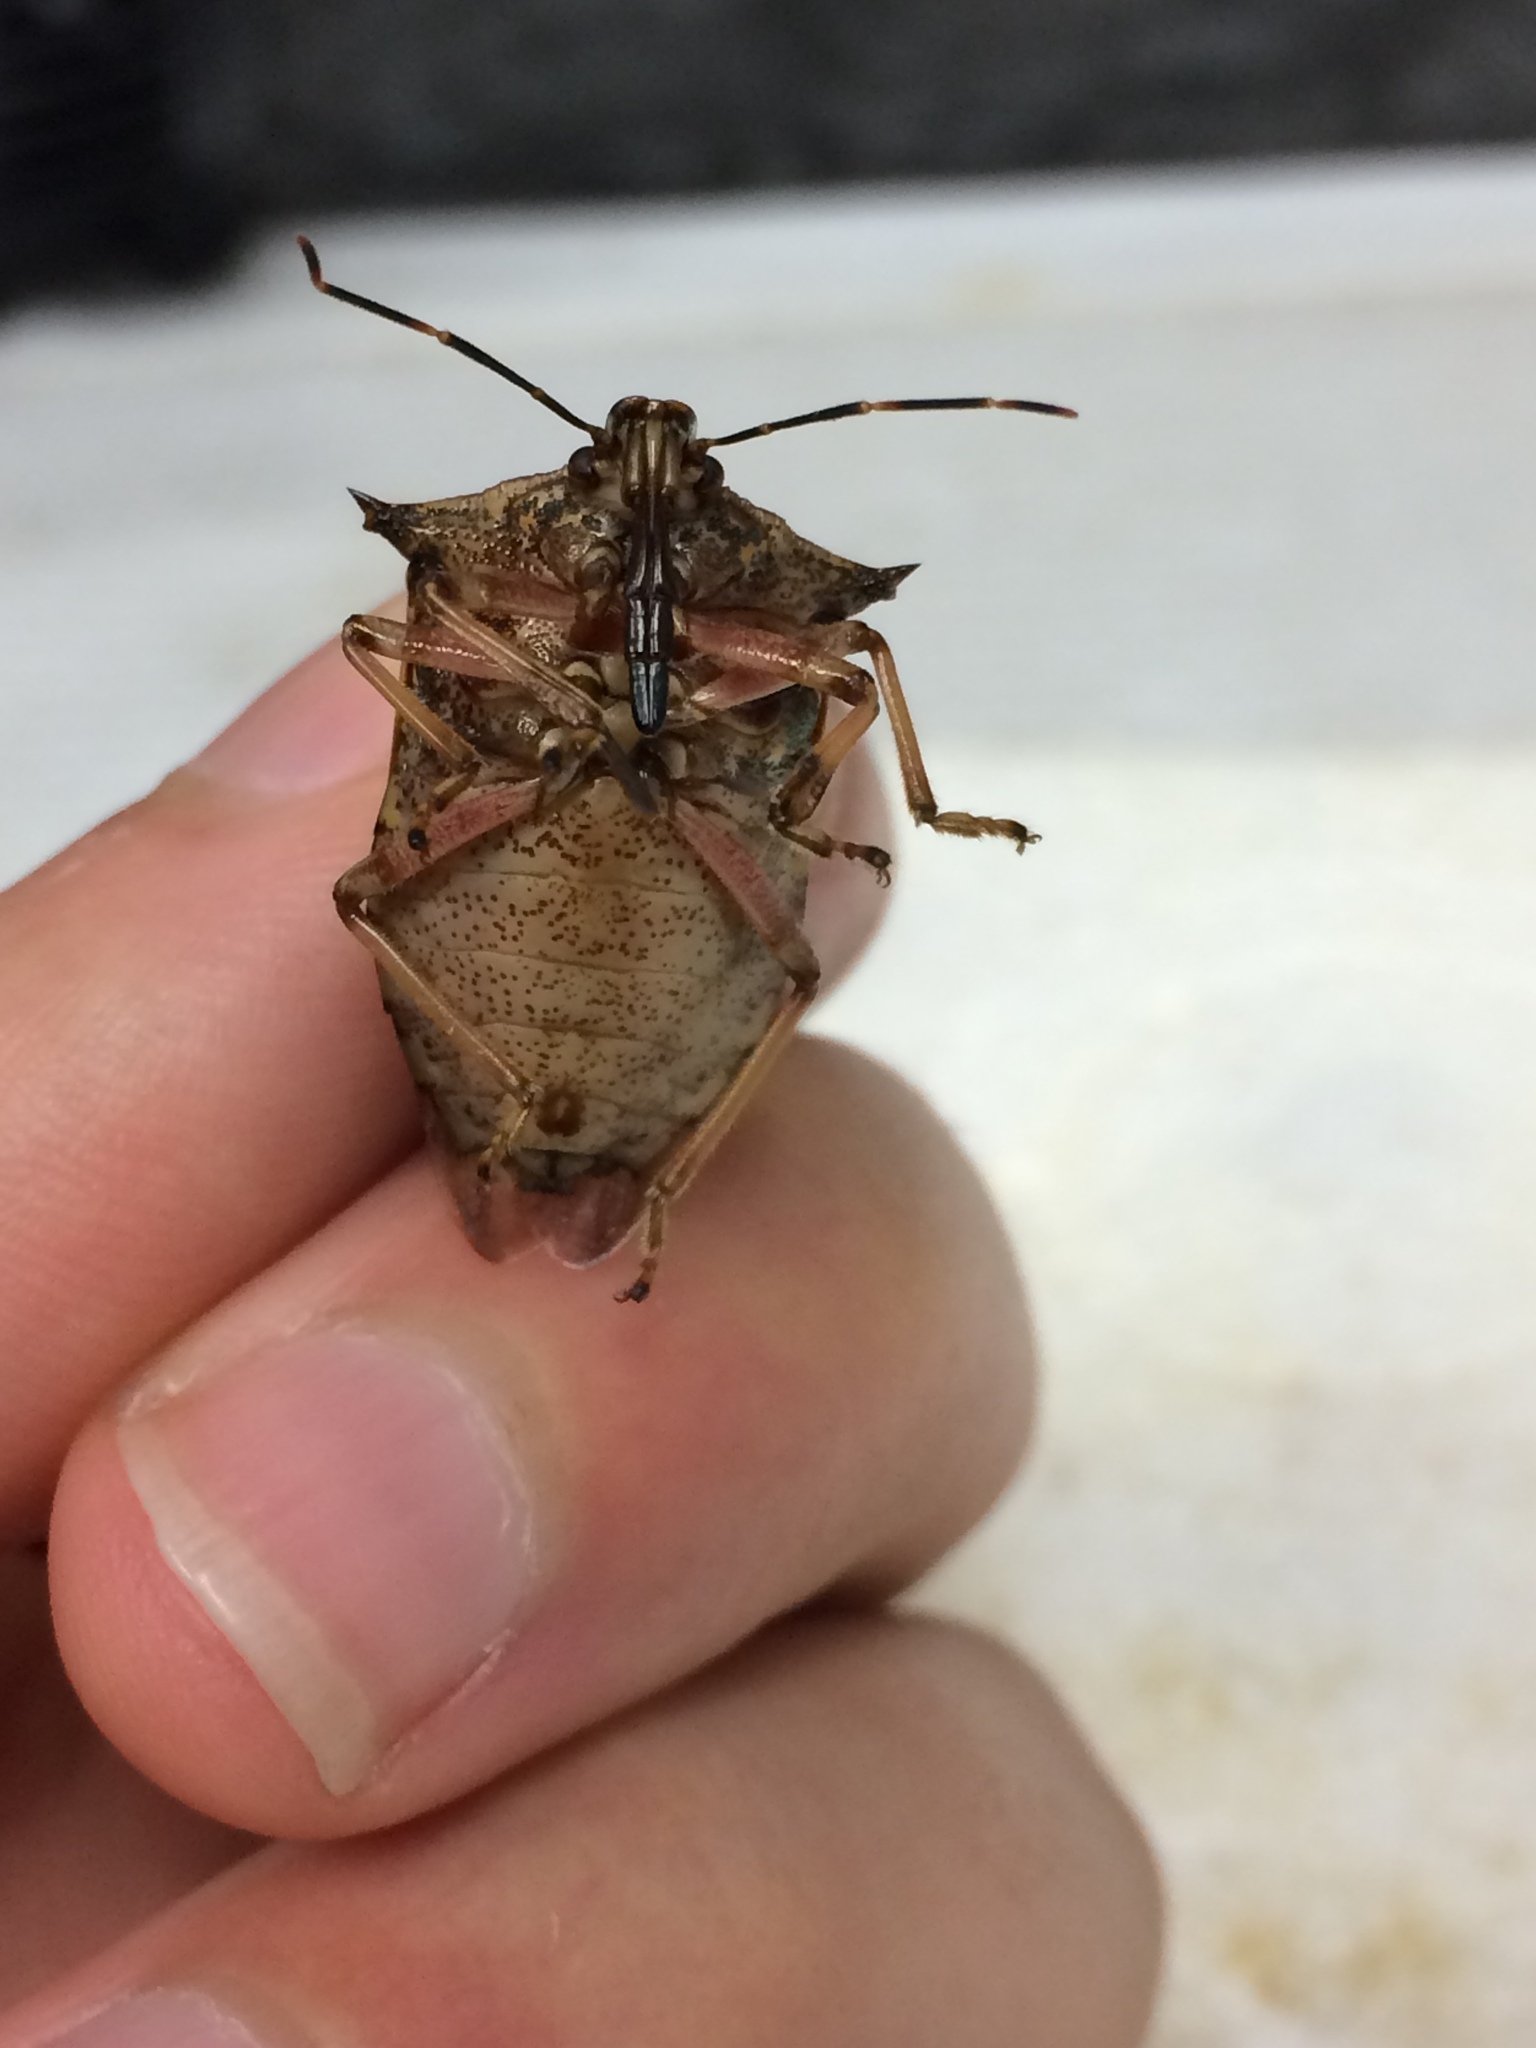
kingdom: Animalia
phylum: Arthropoda
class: Insecta
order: Hemiptera
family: Pentatomidae
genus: Alcaeorrhynchus
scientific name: Alcaeorrhynchus grandis
